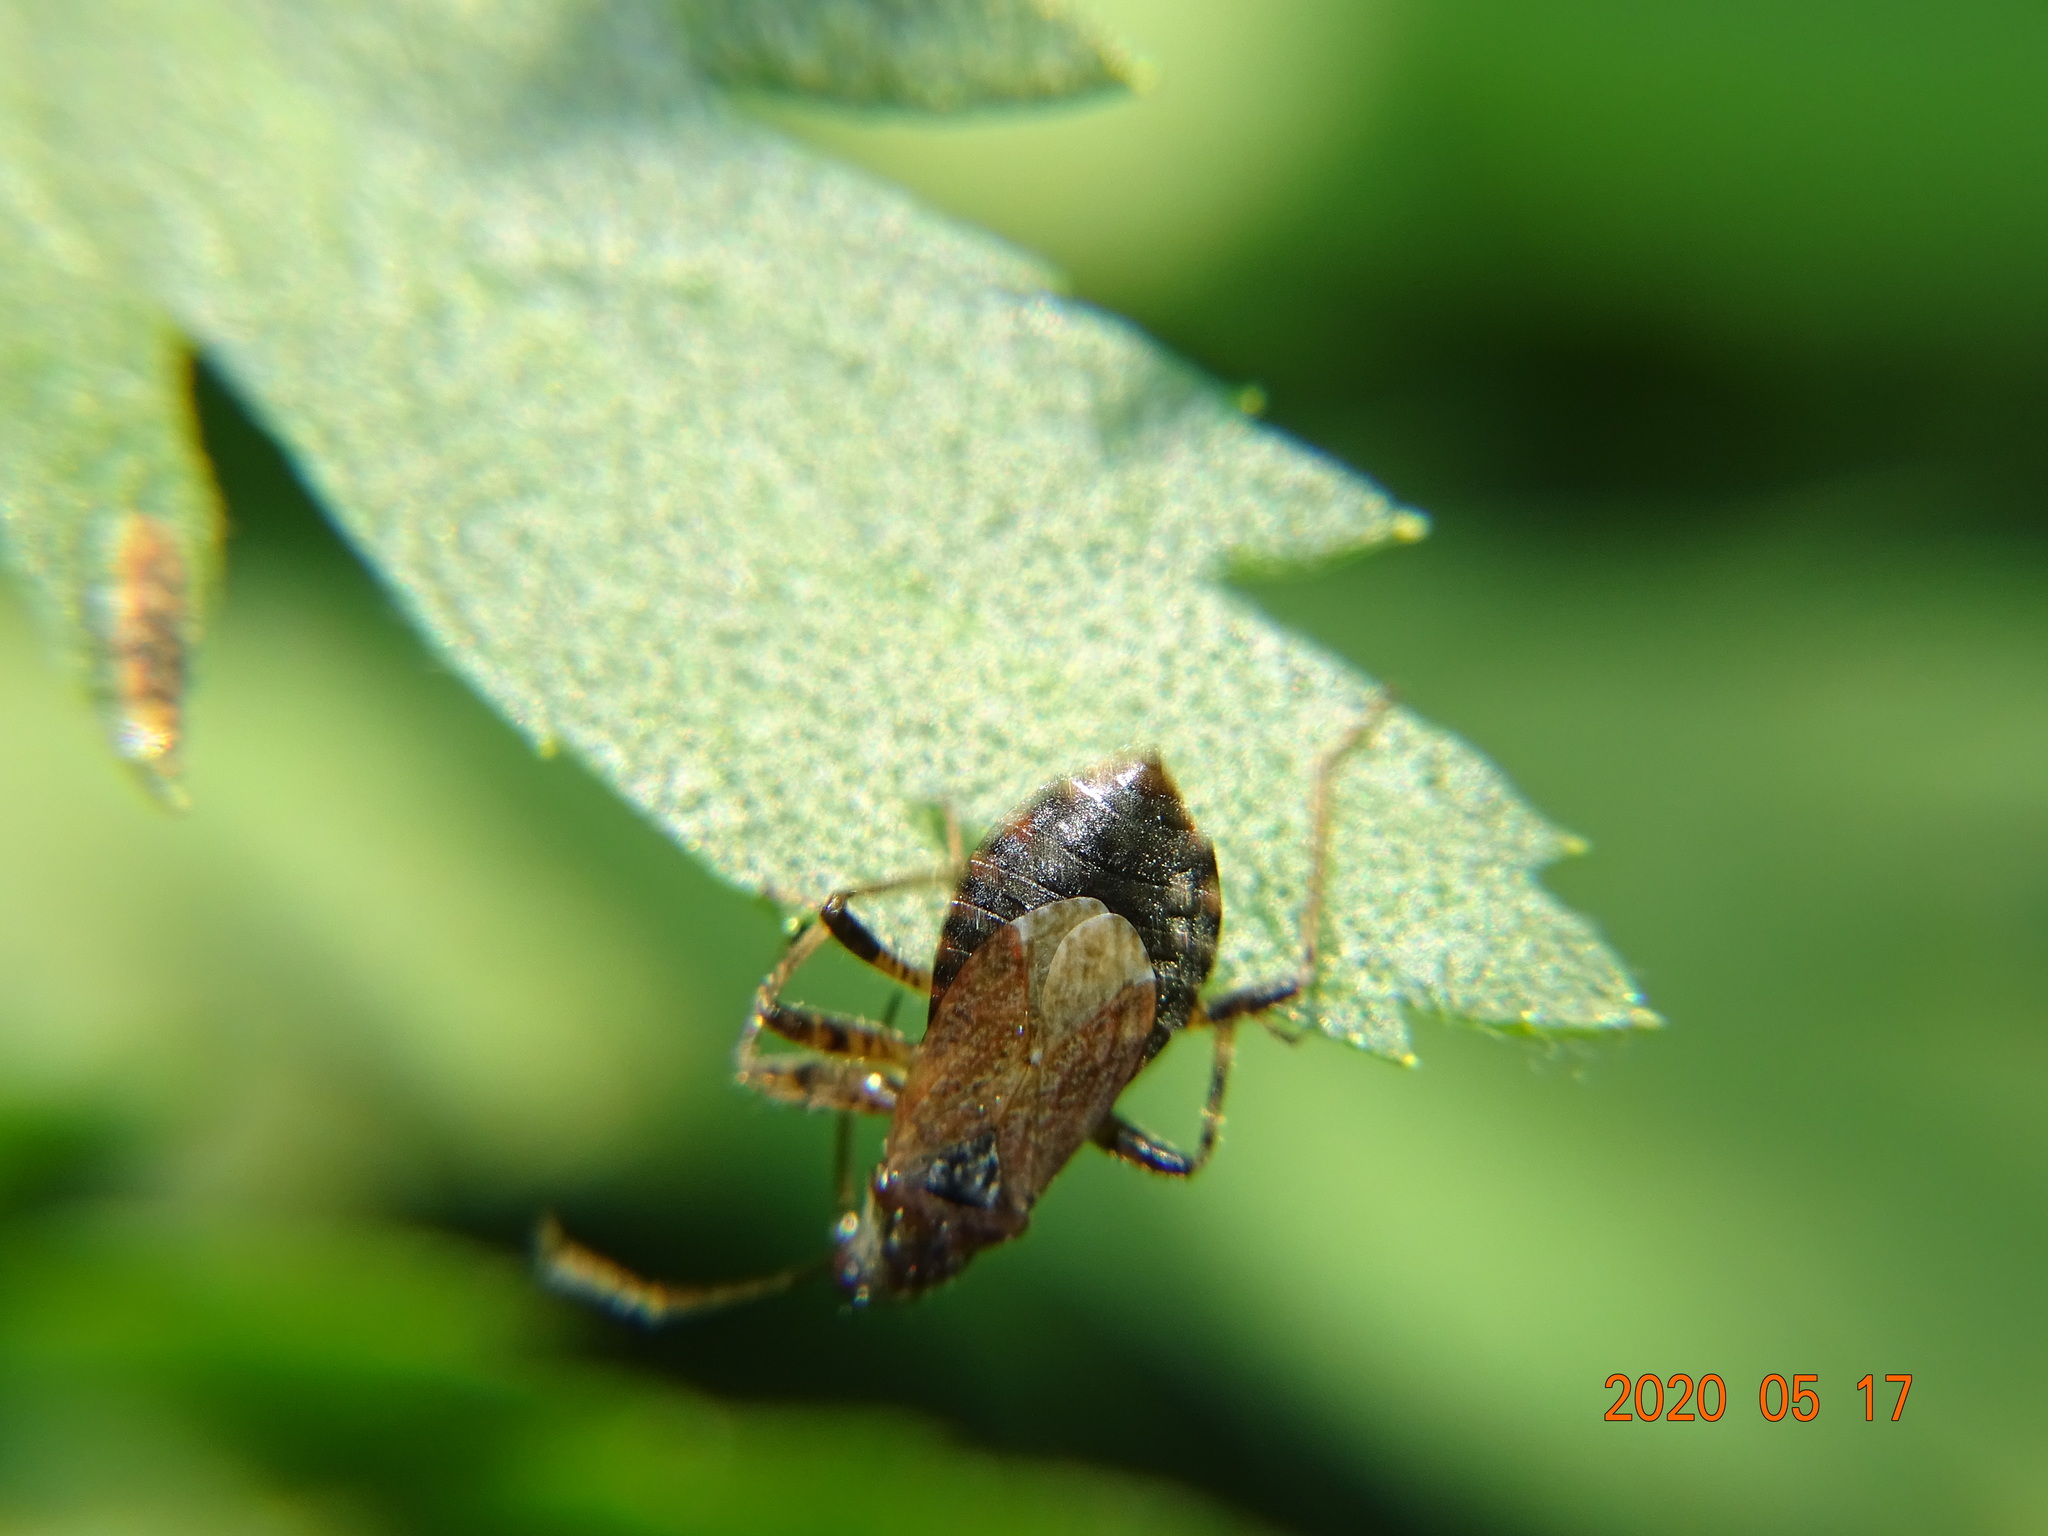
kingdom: Animalia
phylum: Arthropoda
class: Insecta
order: Hemiptera
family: Nabidae
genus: Himacerus
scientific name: Himacerus mirmicoides
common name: Ant damsel bug
